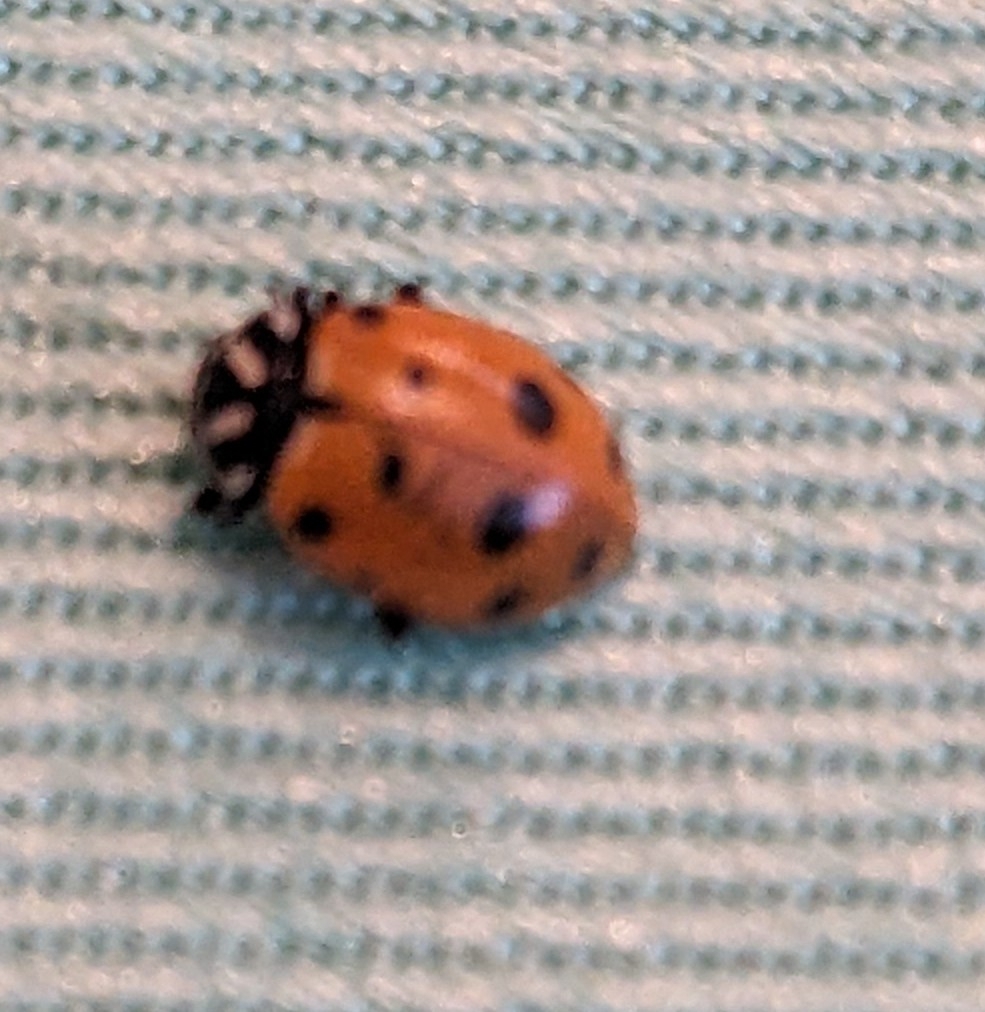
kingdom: Animalia
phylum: Arthropoda
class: Insecta
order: Coleoptera
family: Coccinellidae
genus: Hippodamia
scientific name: Hippodamia convergens
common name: Convergent lady beetle
